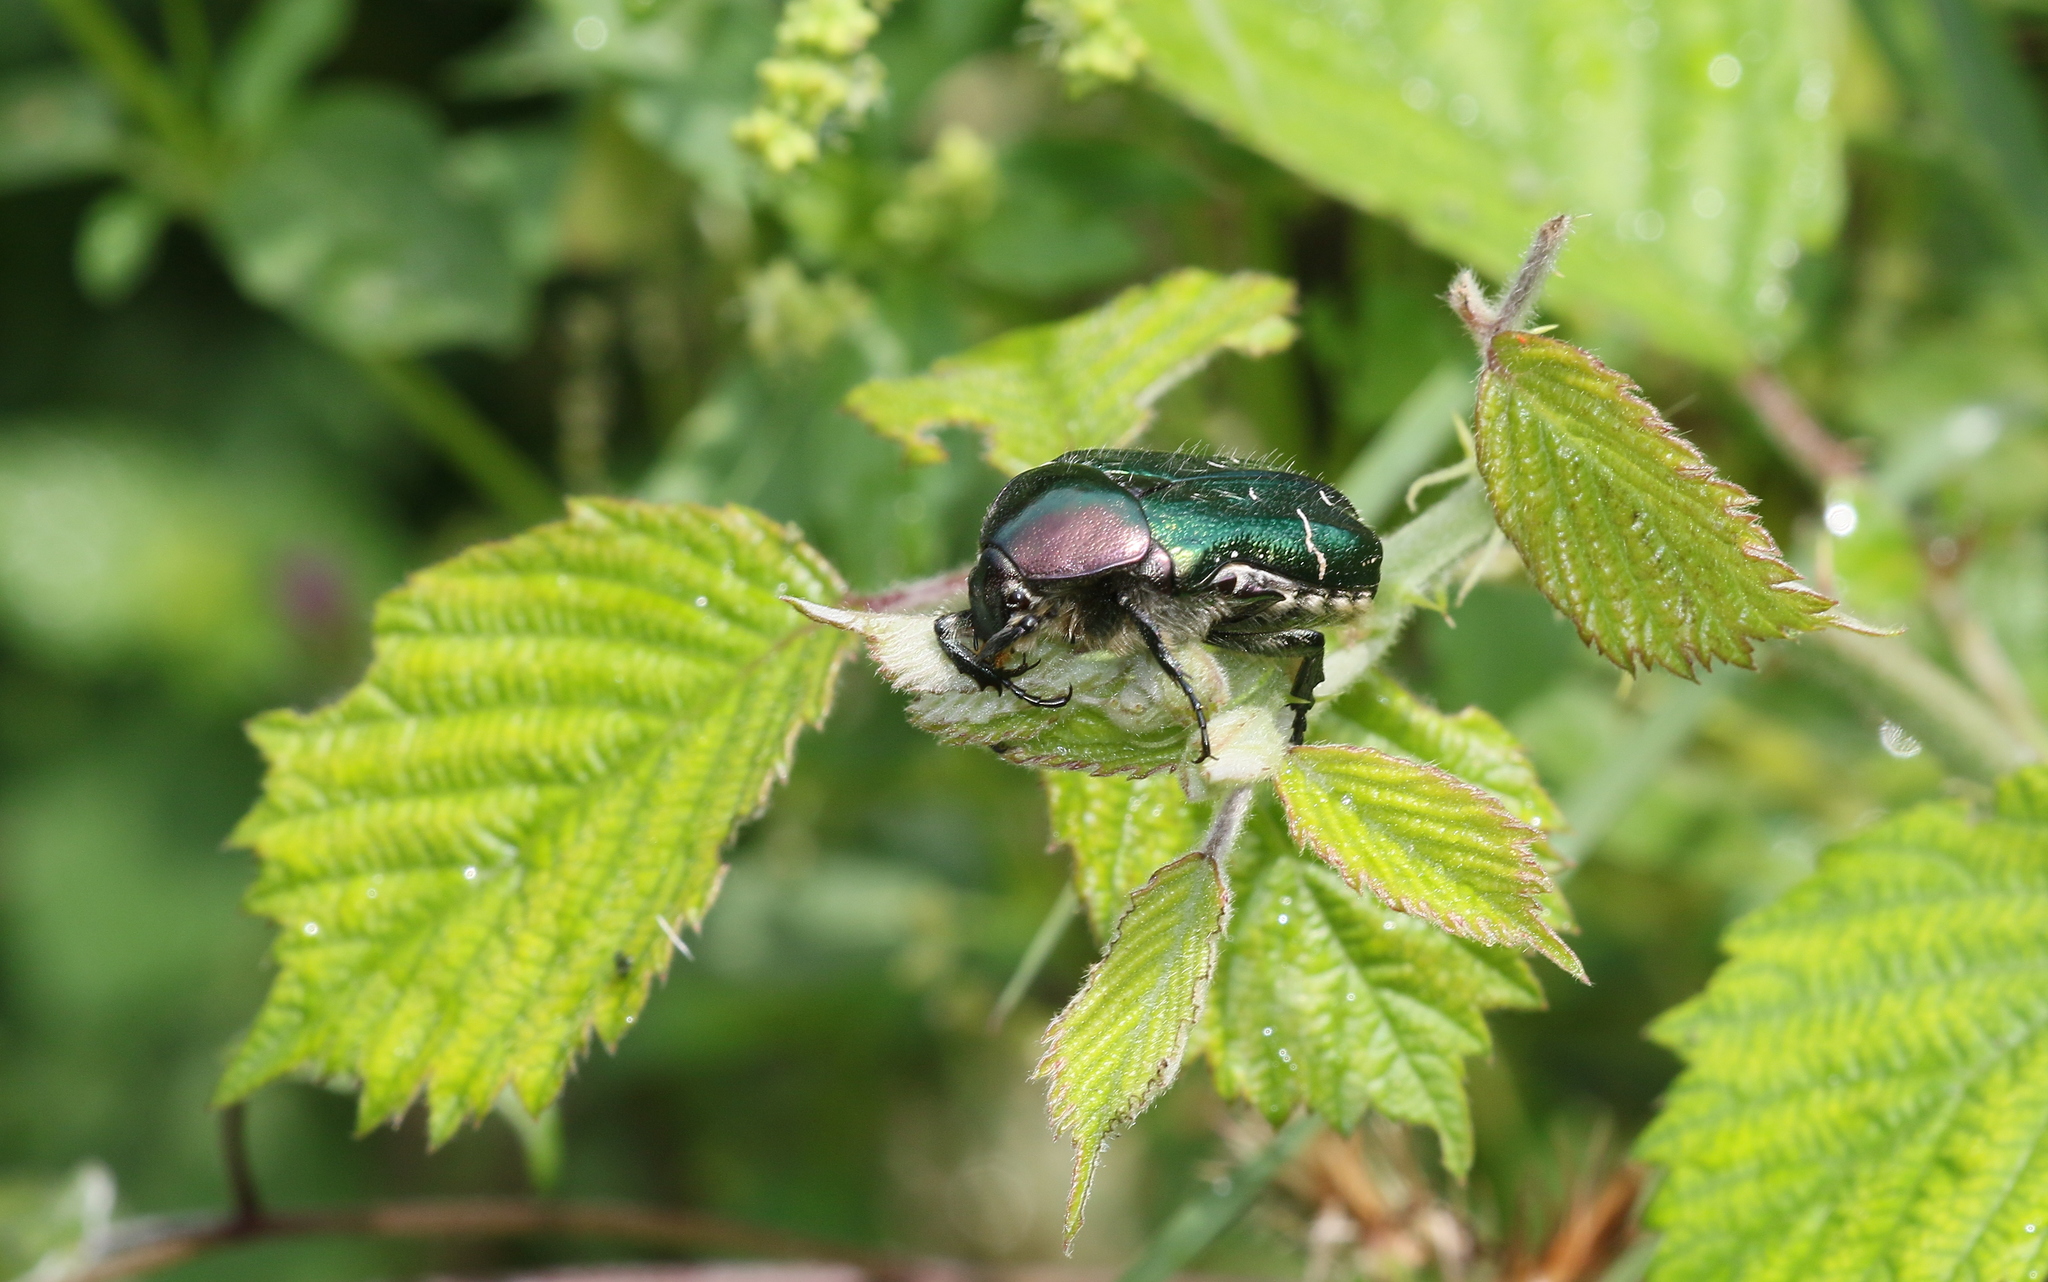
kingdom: Animalia
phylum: Arthropoda
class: Insecta
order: Coleoptera
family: Scarabaeidae
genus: Cetonia
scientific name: Cetonia aurata
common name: Rose chafer
